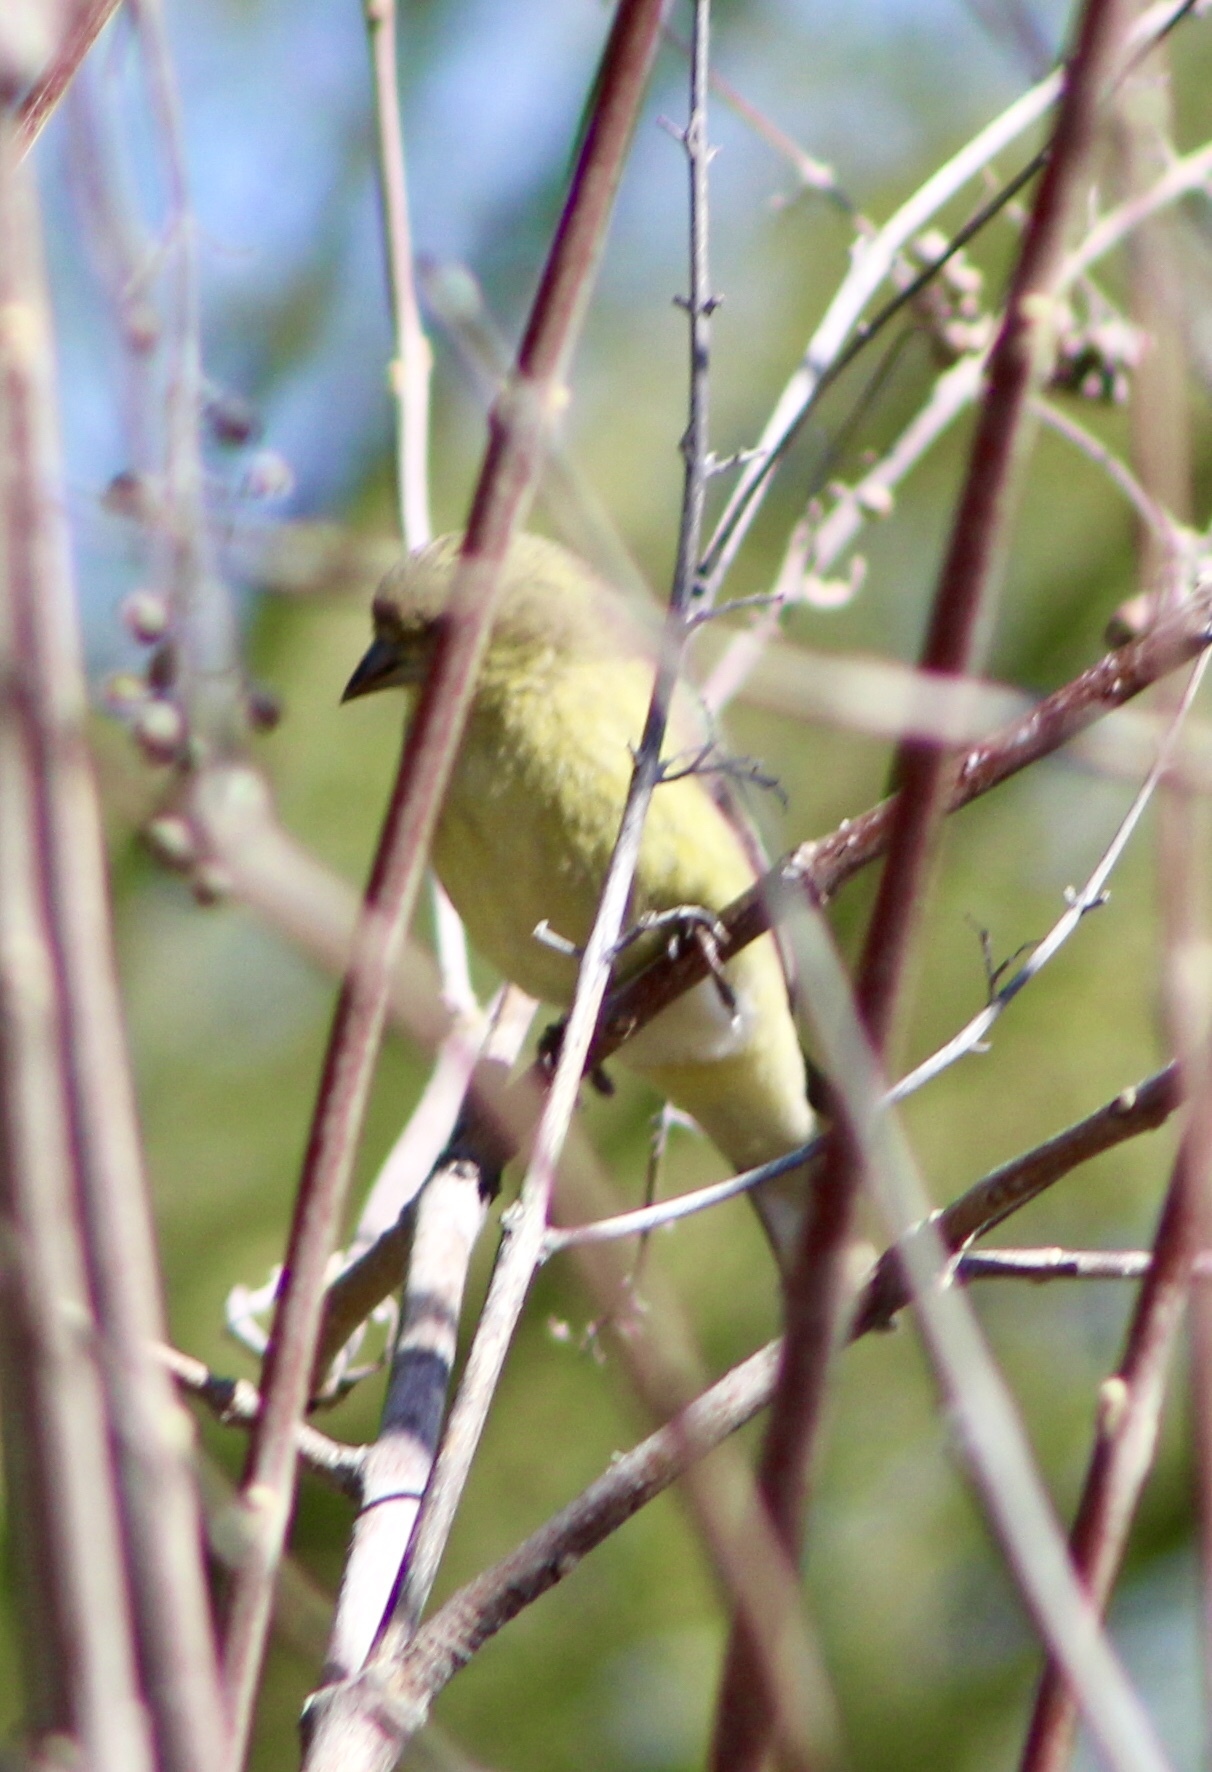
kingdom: Animalia
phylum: Chordata
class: Aves
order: Passeriformes
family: Fringillidae
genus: Spinus
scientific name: Spinus psaltria
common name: Lesser goldfinch
